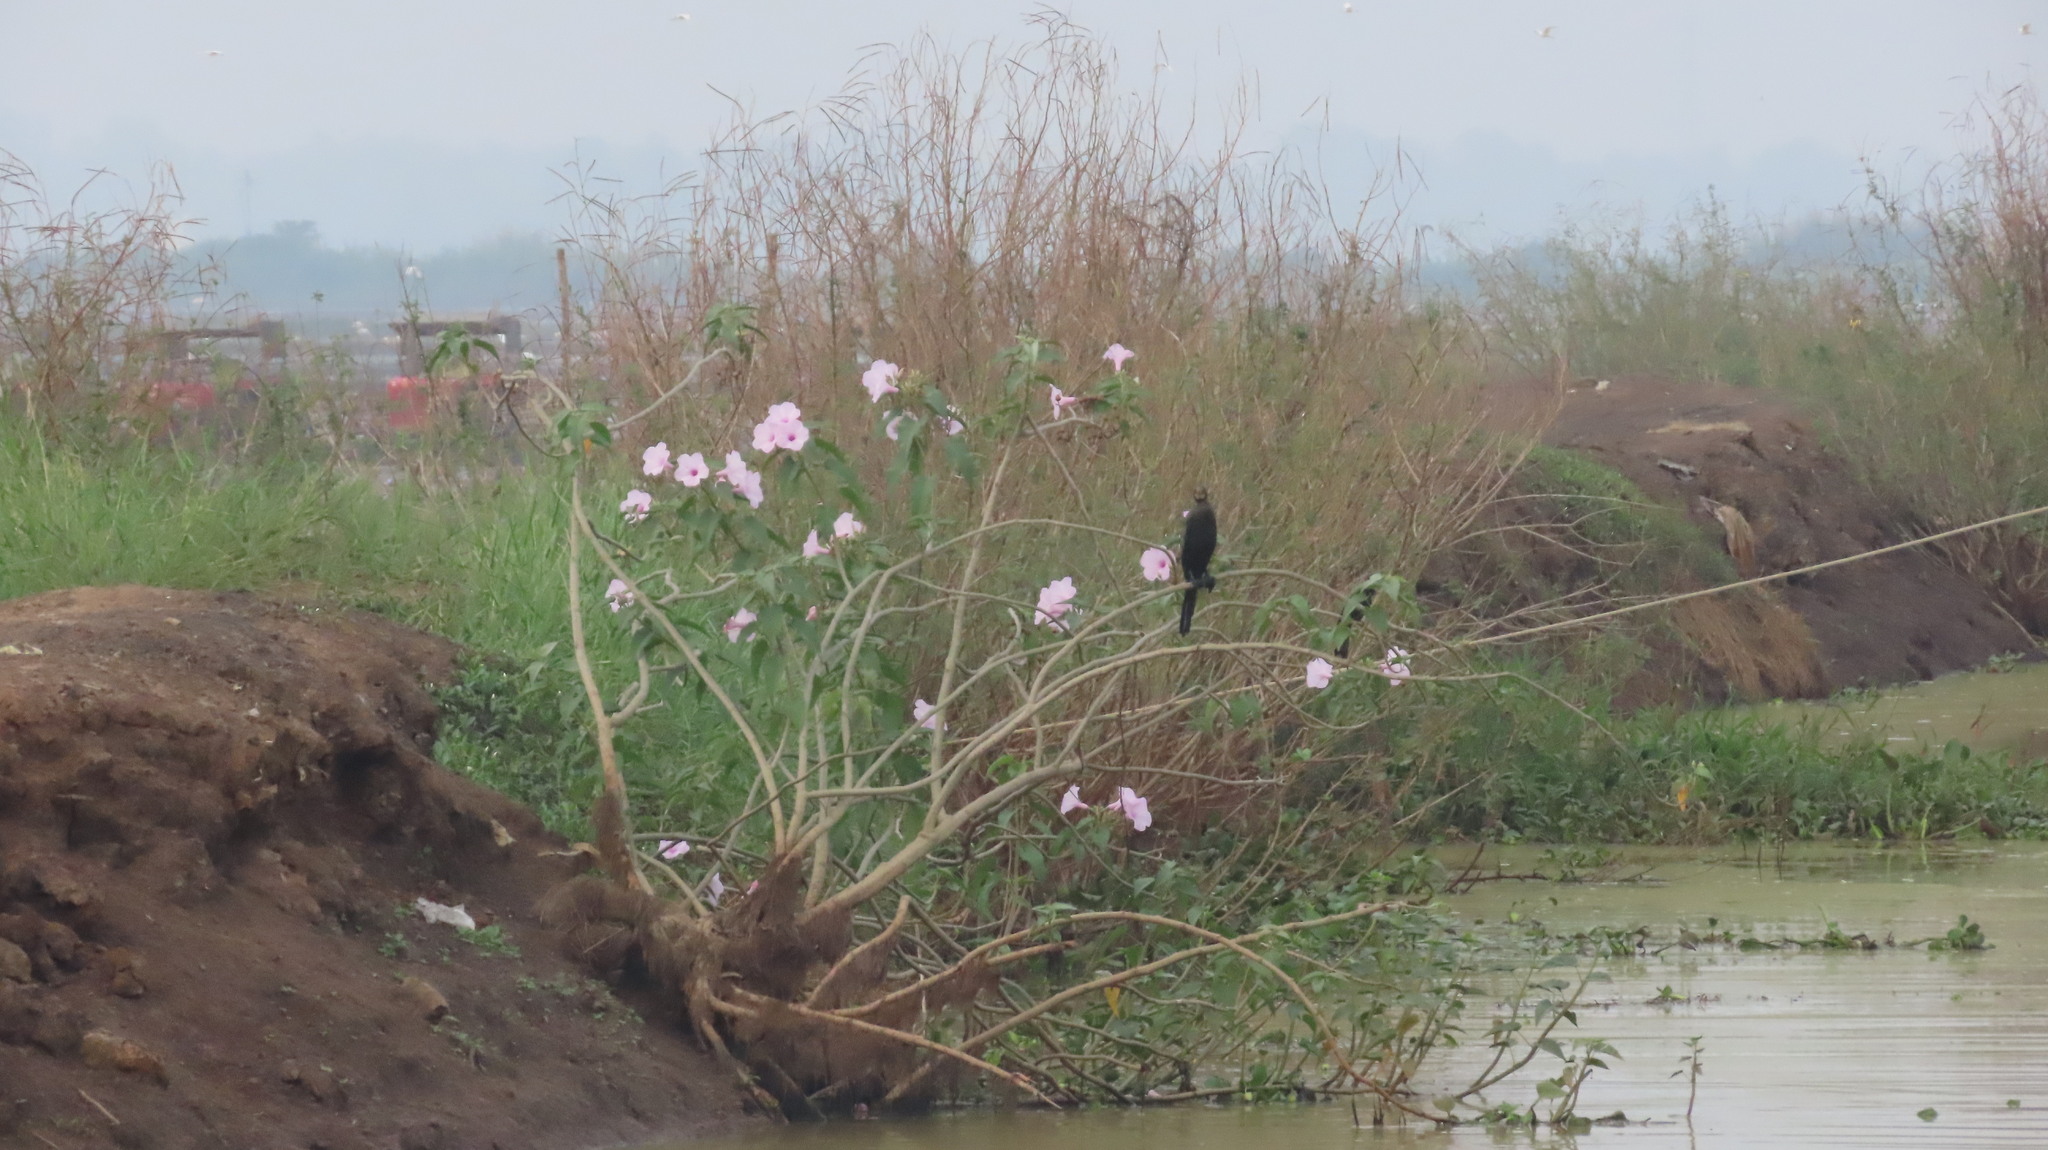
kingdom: Animalia
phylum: Chordata
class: Aves
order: Suliformes
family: Phalacrocoracidae
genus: Microcarbo
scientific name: Microcarbo niger
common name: Little cormorant
